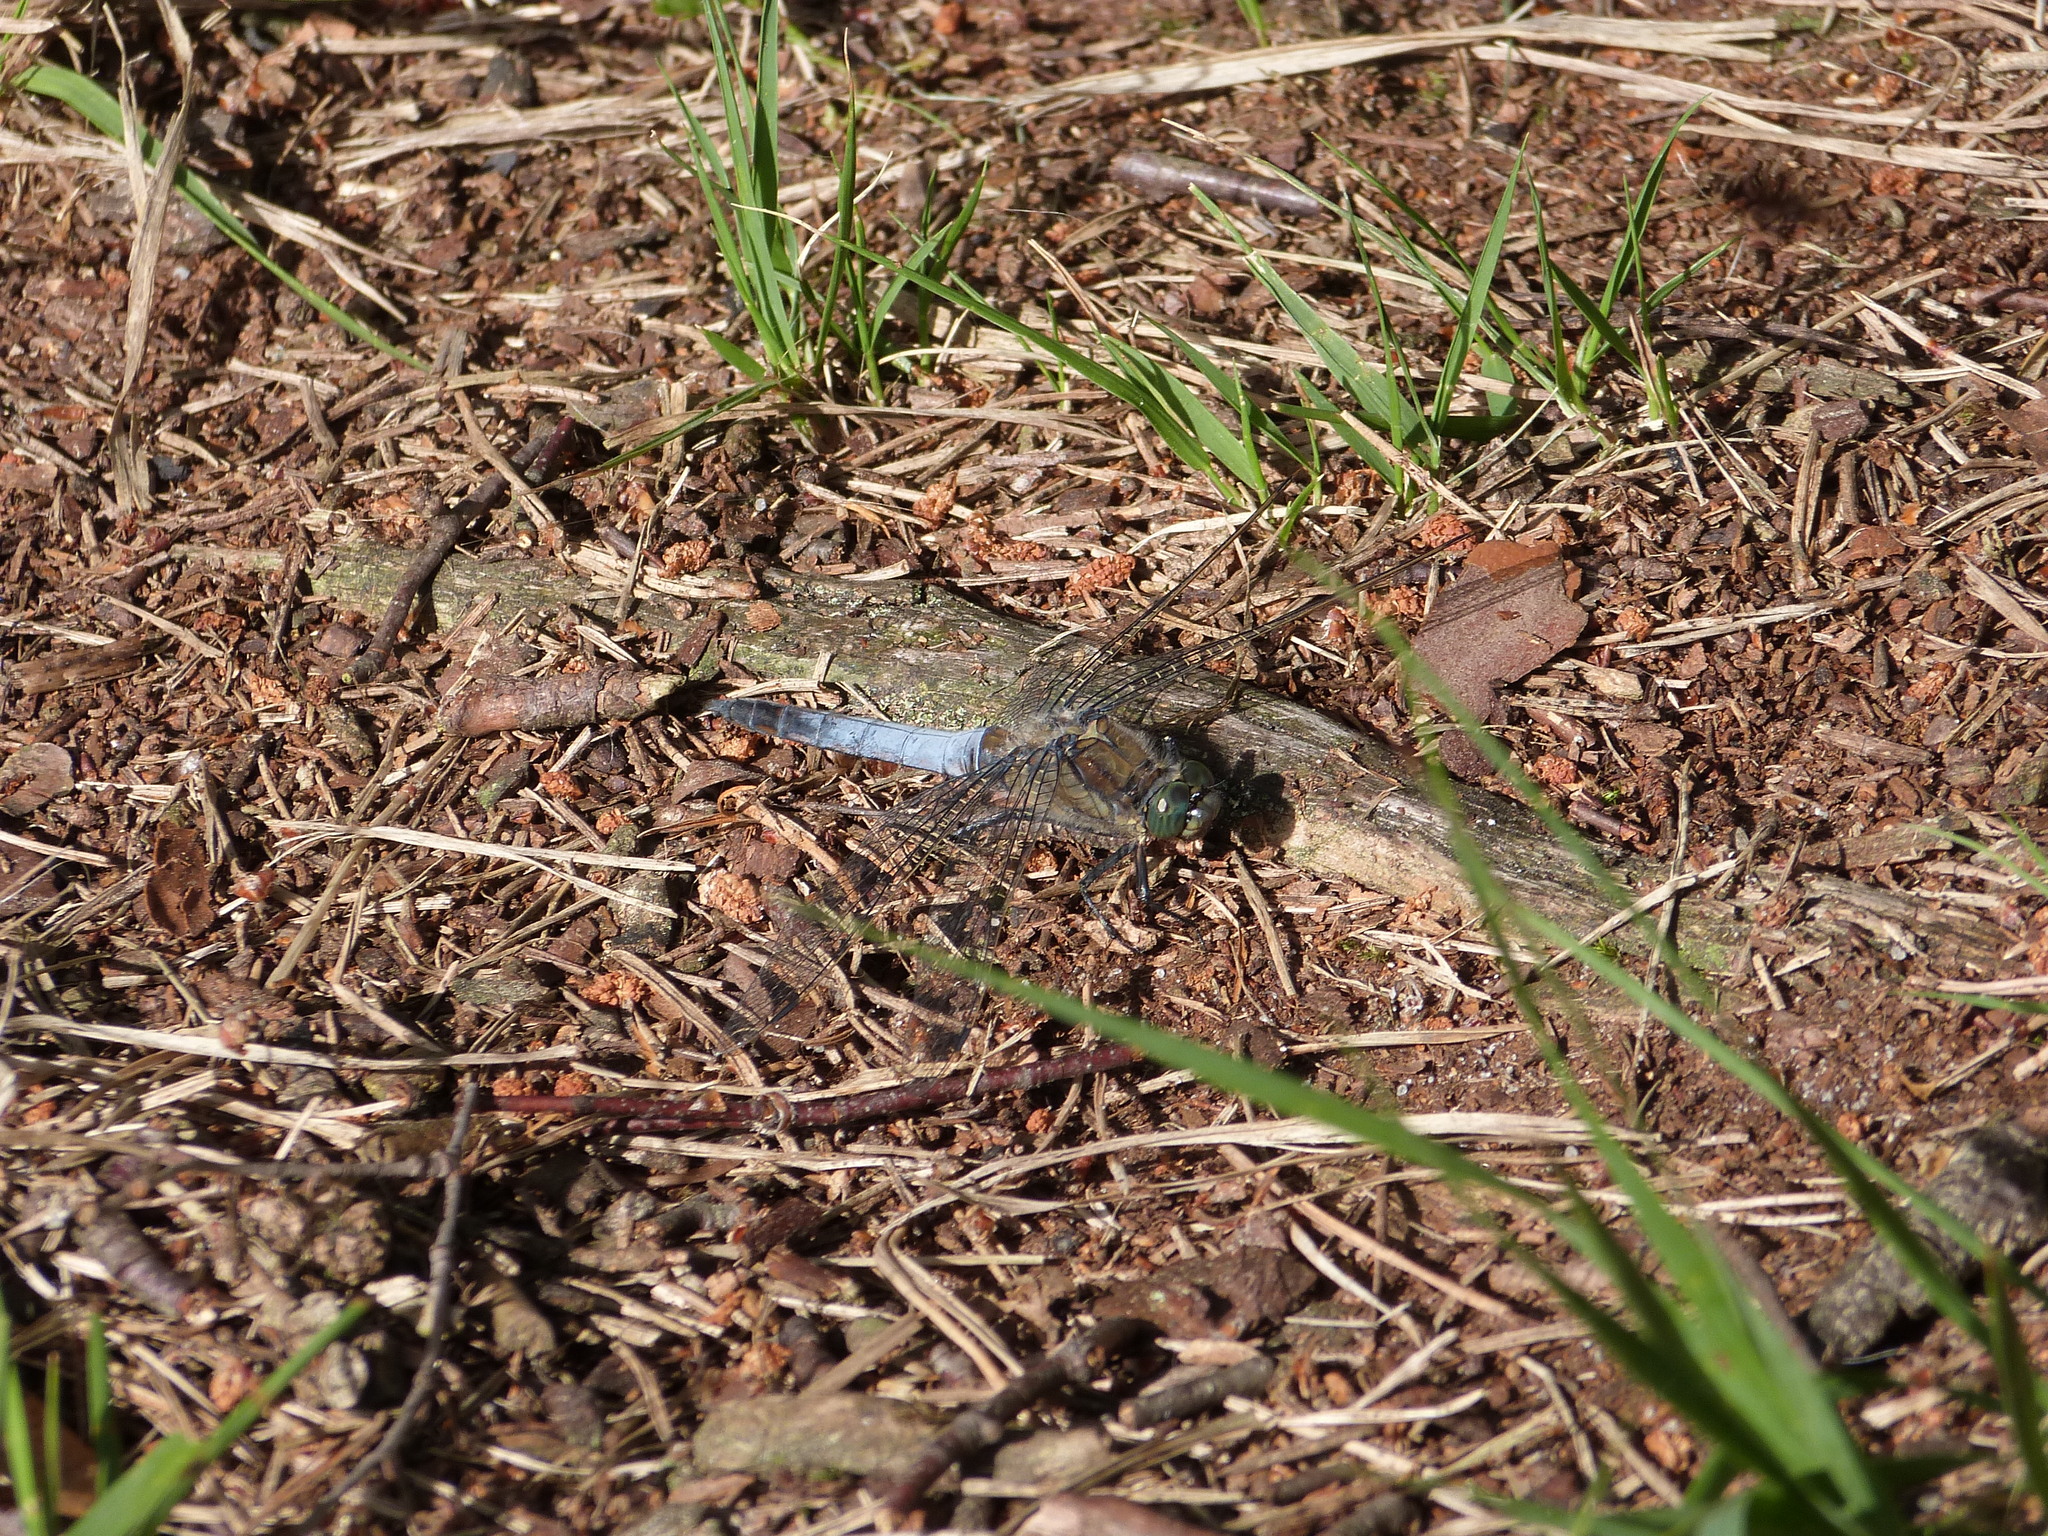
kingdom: Animalia
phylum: Arthropoda
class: Insecta
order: Odonata
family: Libellulidae
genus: Orthetrum
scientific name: Orthetrum cancellatum
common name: Black-tailed skimmer
